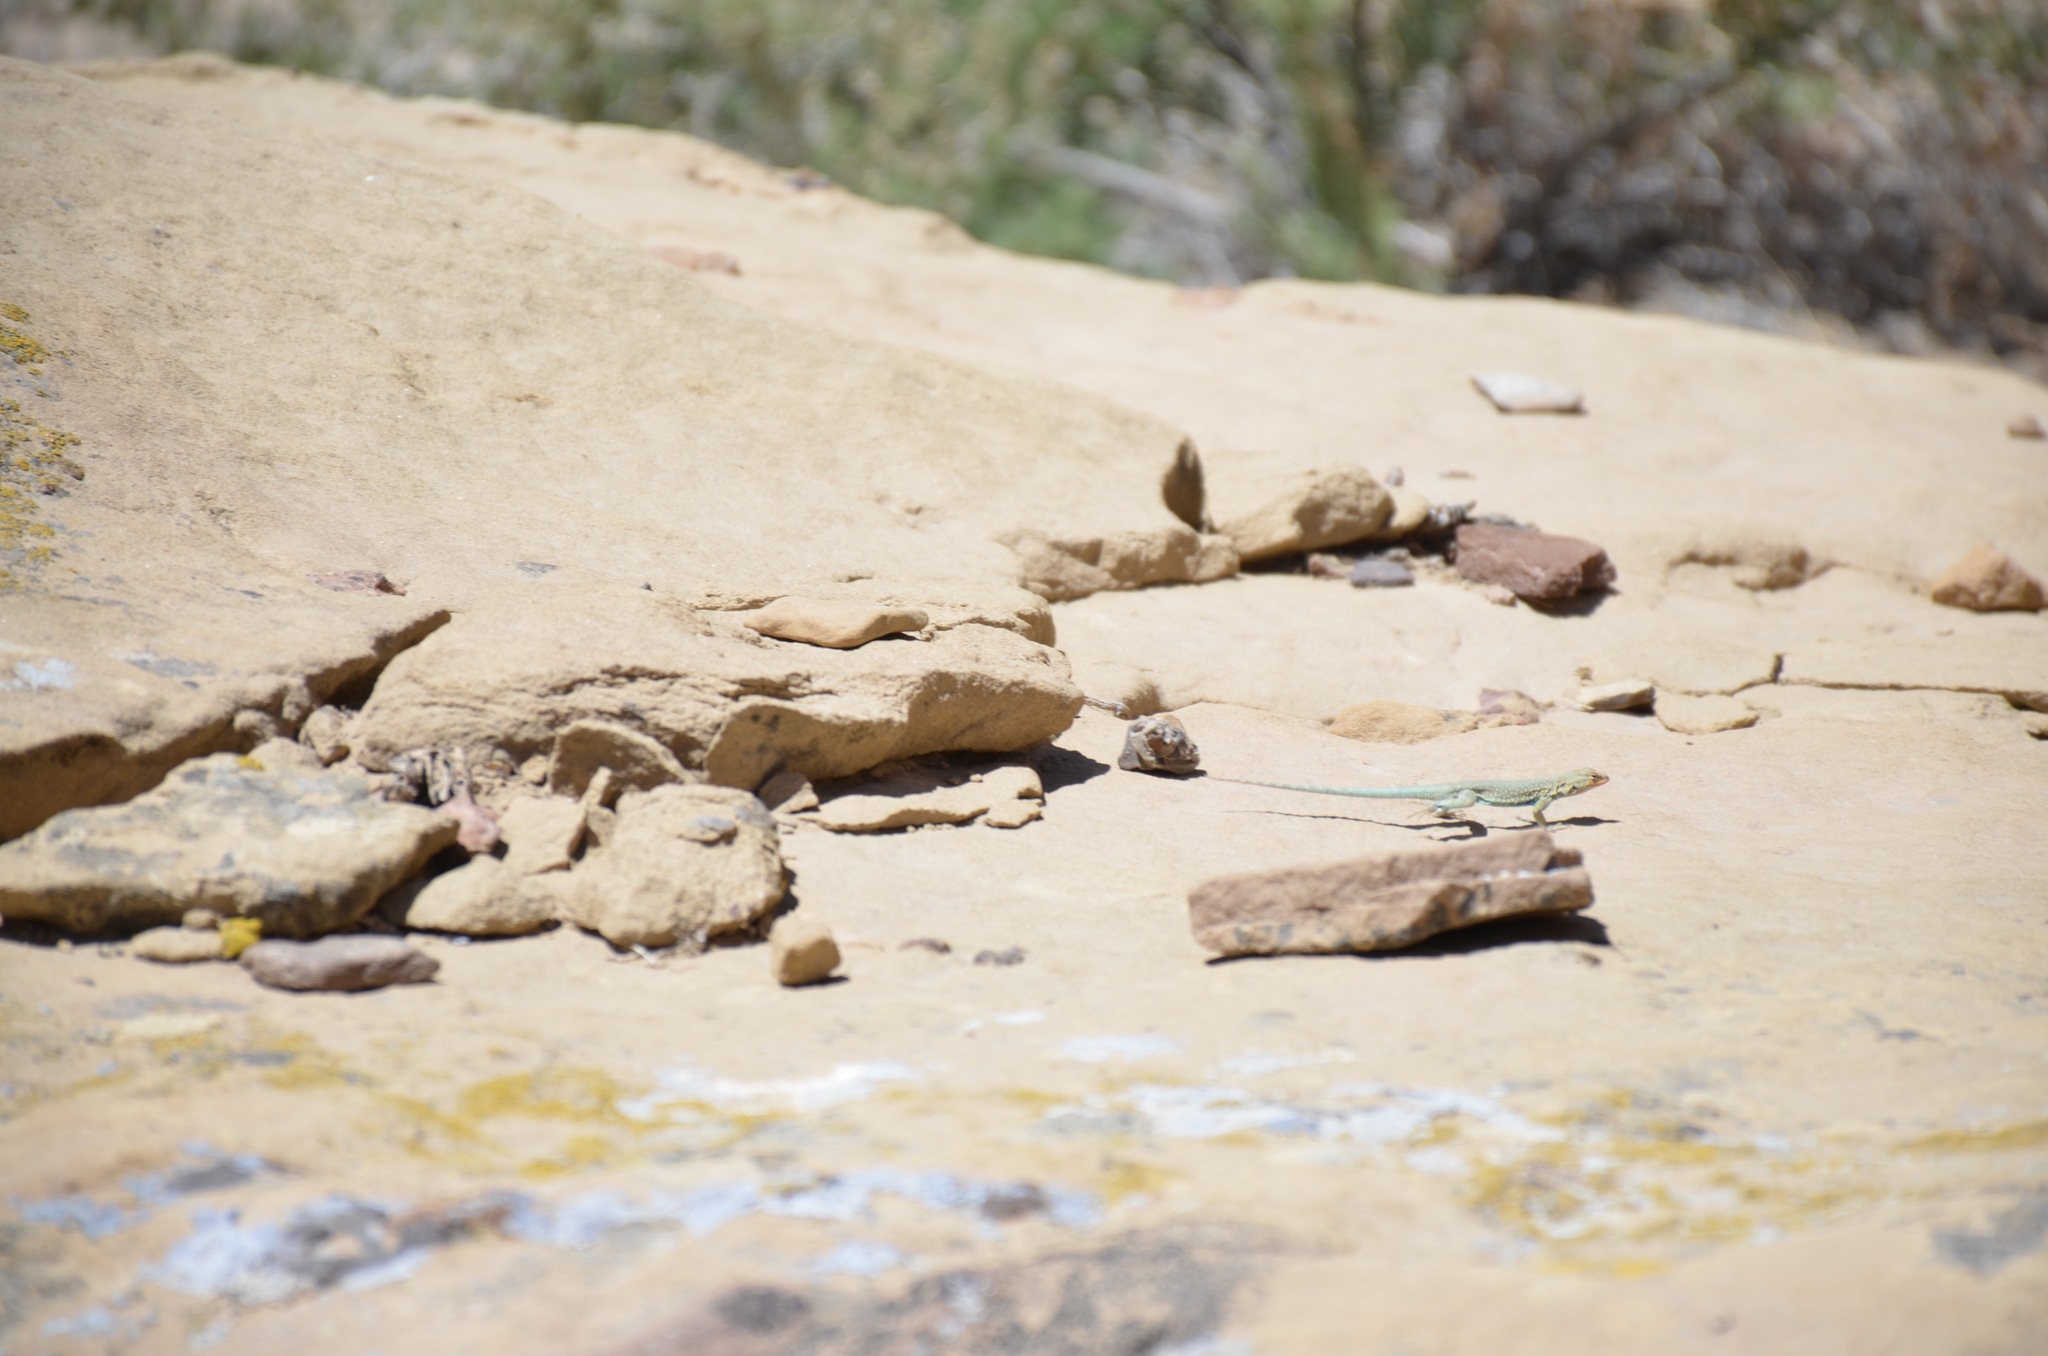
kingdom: Animalia
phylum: Chordata
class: Squamata
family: Phrynosomatidae
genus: Uta
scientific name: Uta stansburiana
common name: Side-blotched lizard
